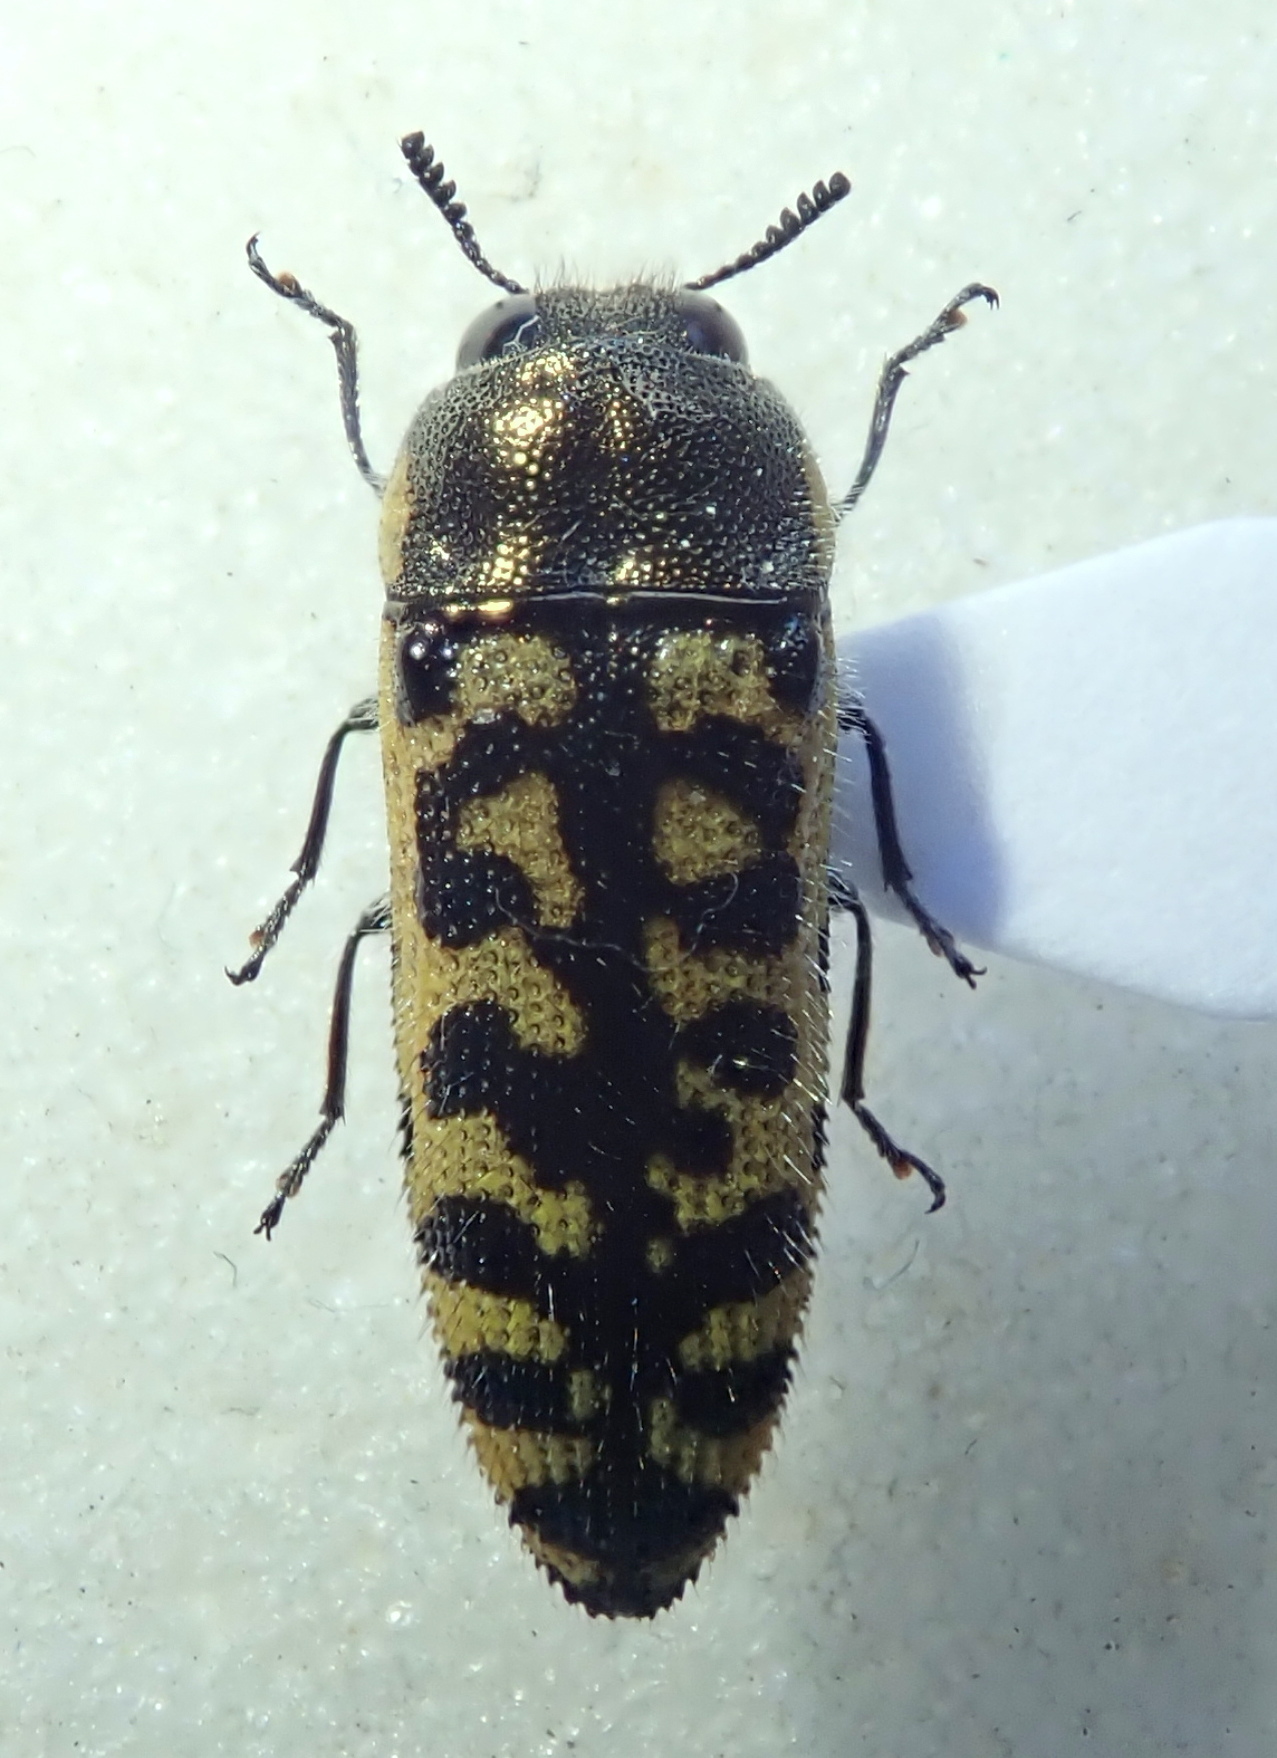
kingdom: Animalia
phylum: Arthropoda
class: Insecta
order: Coleoptera
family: Buprestidae
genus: Acmaeodera
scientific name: Acmaeodera solitaria
